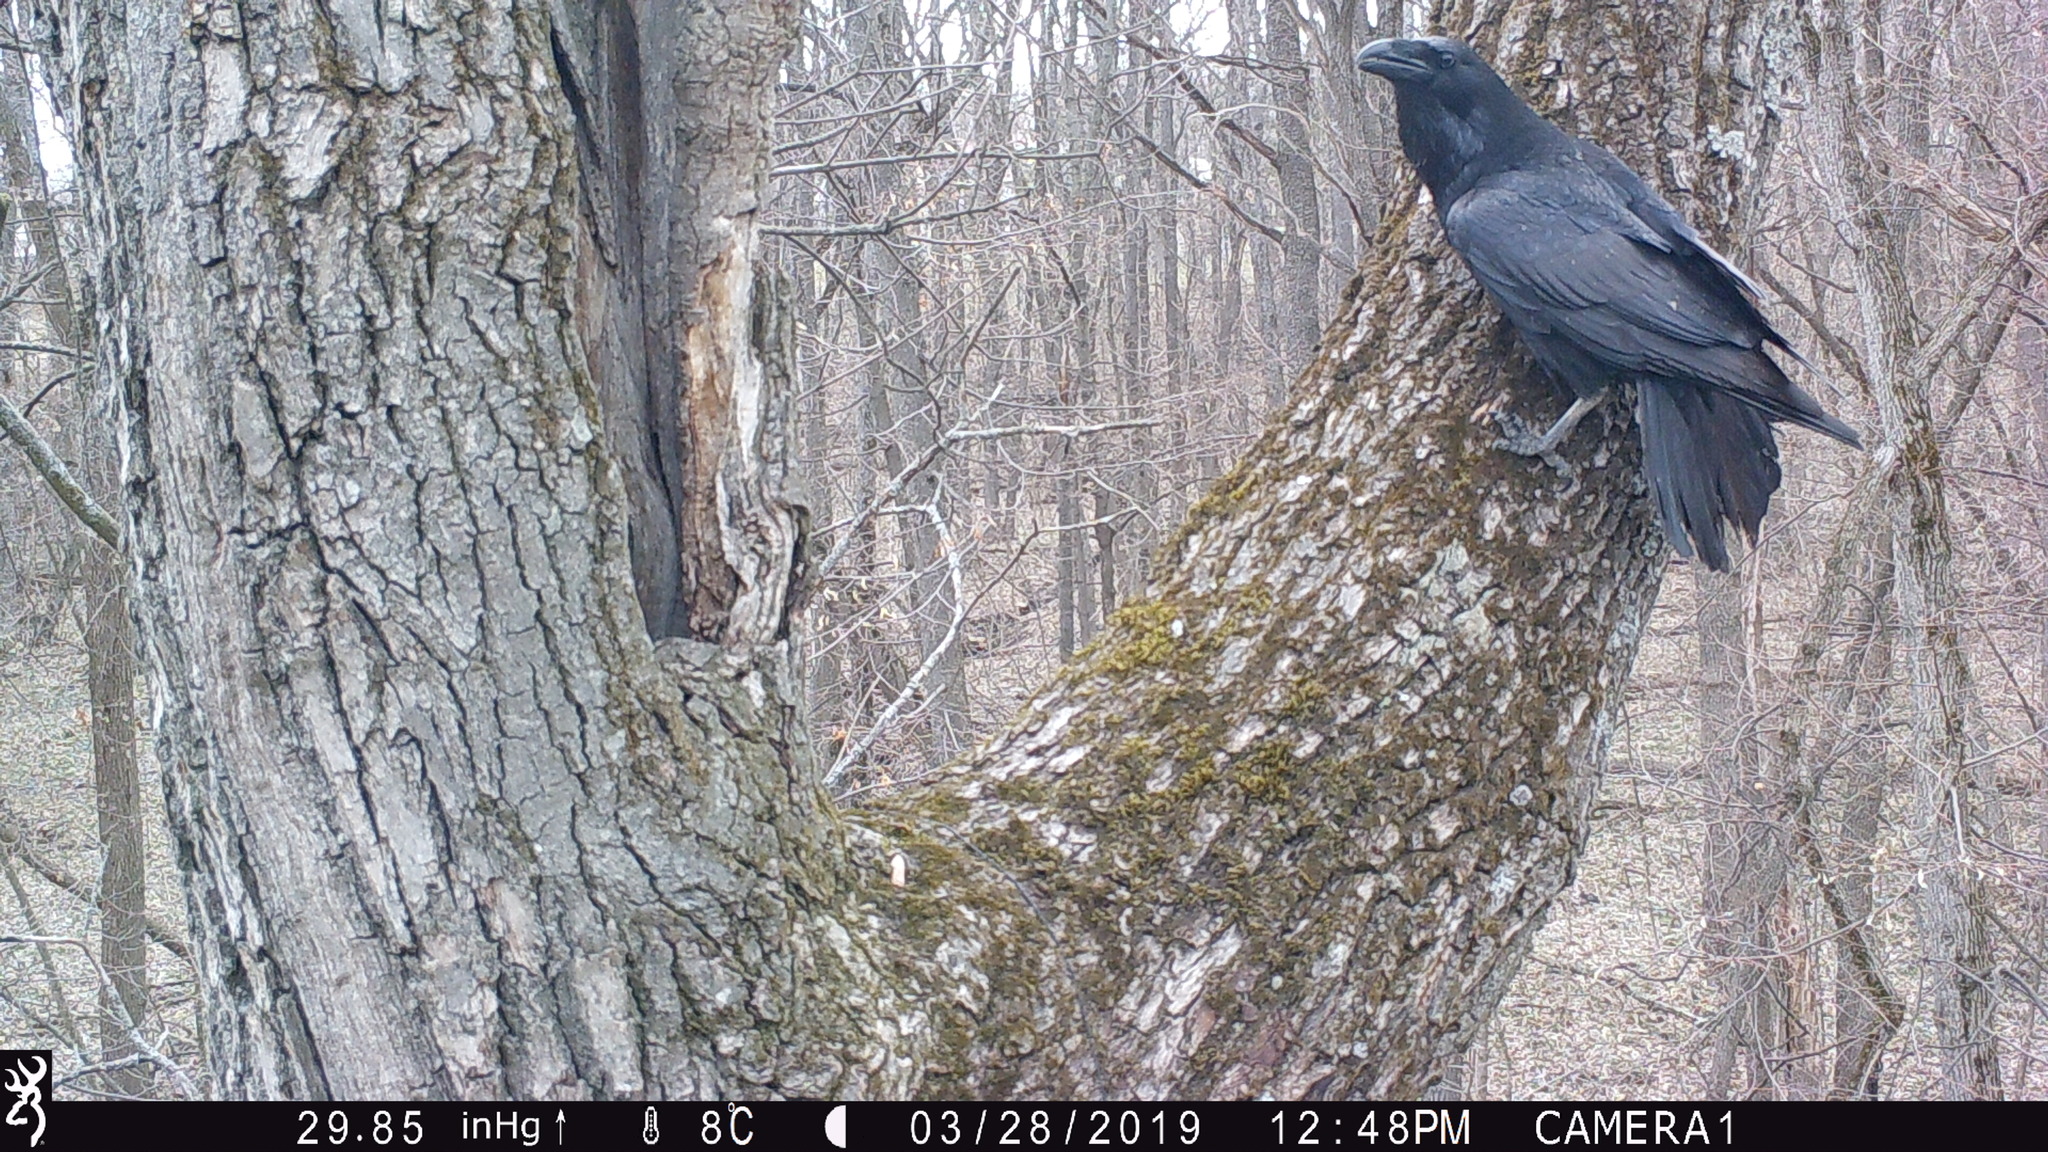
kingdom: Animalia
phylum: Chordata
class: Aves
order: Passeriformes
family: Corvidae
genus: Corvus
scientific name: Corvus corax
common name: Common raven
